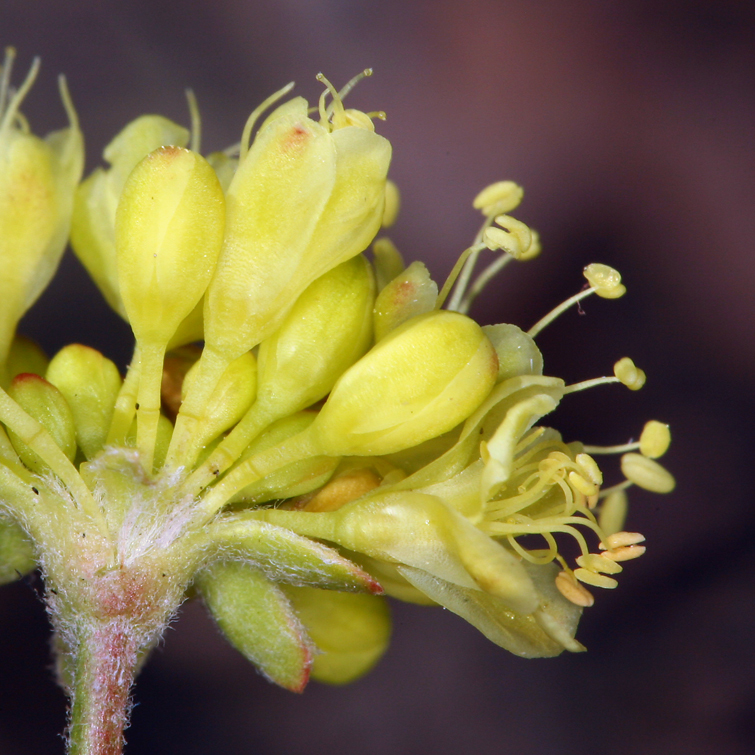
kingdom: Plantae
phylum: Tracheophyta
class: Magnoliopsida
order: Caryophyllales
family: Polygonaceae
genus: Eriogonum
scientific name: Eriogonum umbellatum
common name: Sulfur-buckwheat
